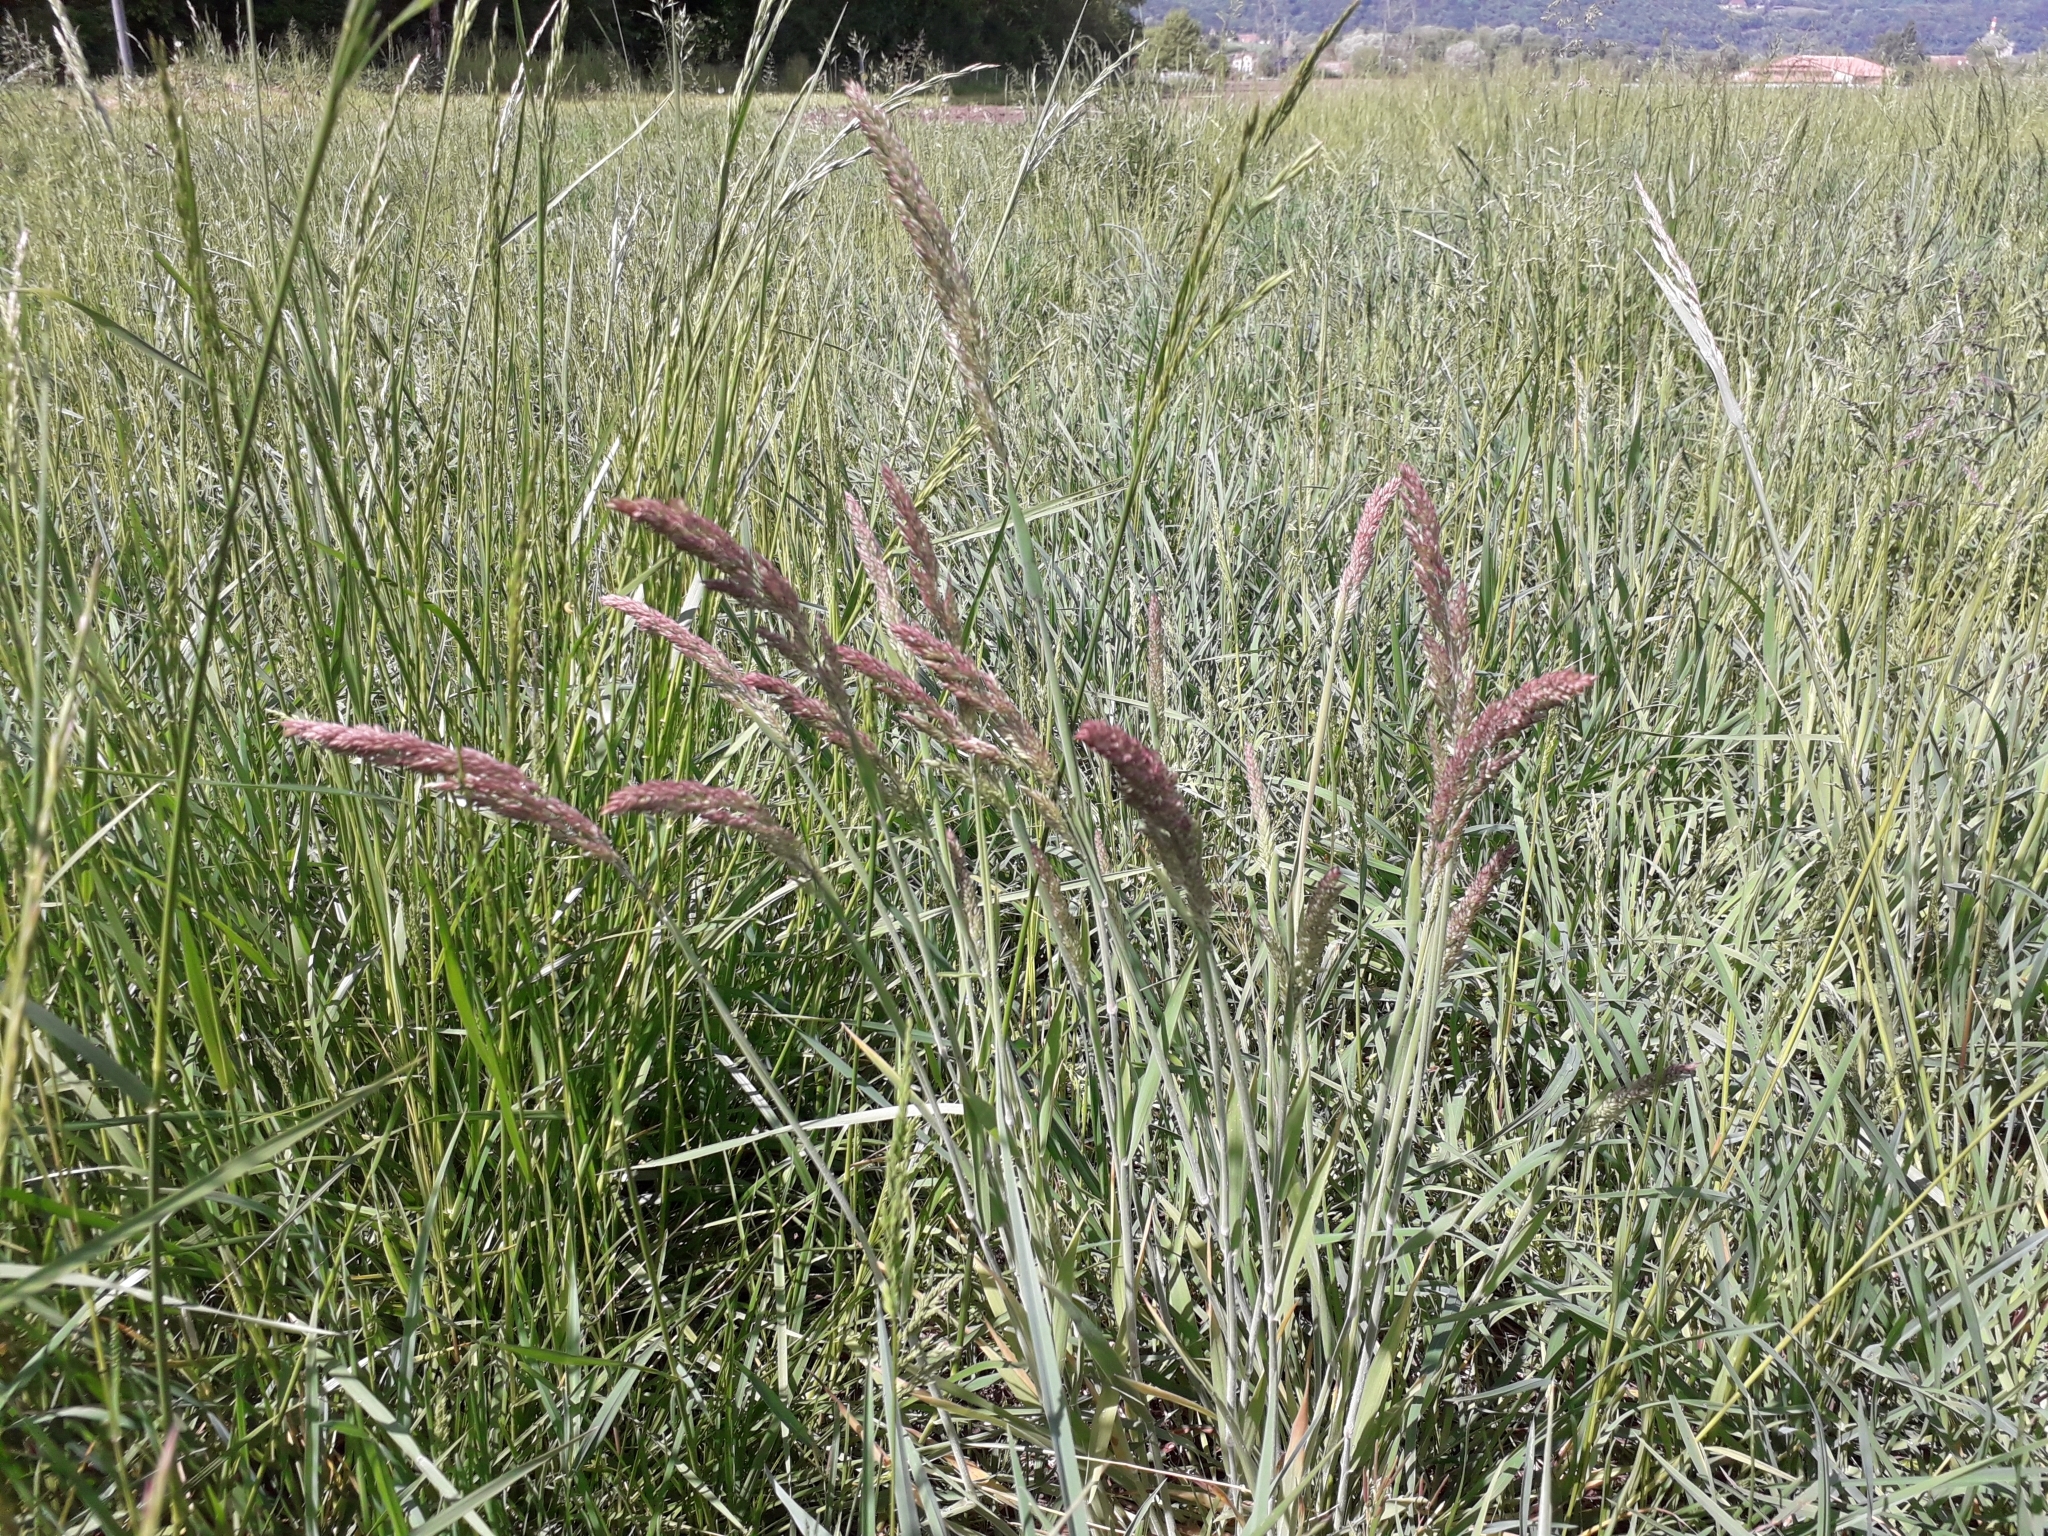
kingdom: Plantae
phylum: Tracheophyta
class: Liliopsida
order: Poales
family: Poaceae
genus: Holcus
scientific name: Holcus lanatus
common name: Yorkshire-fog
